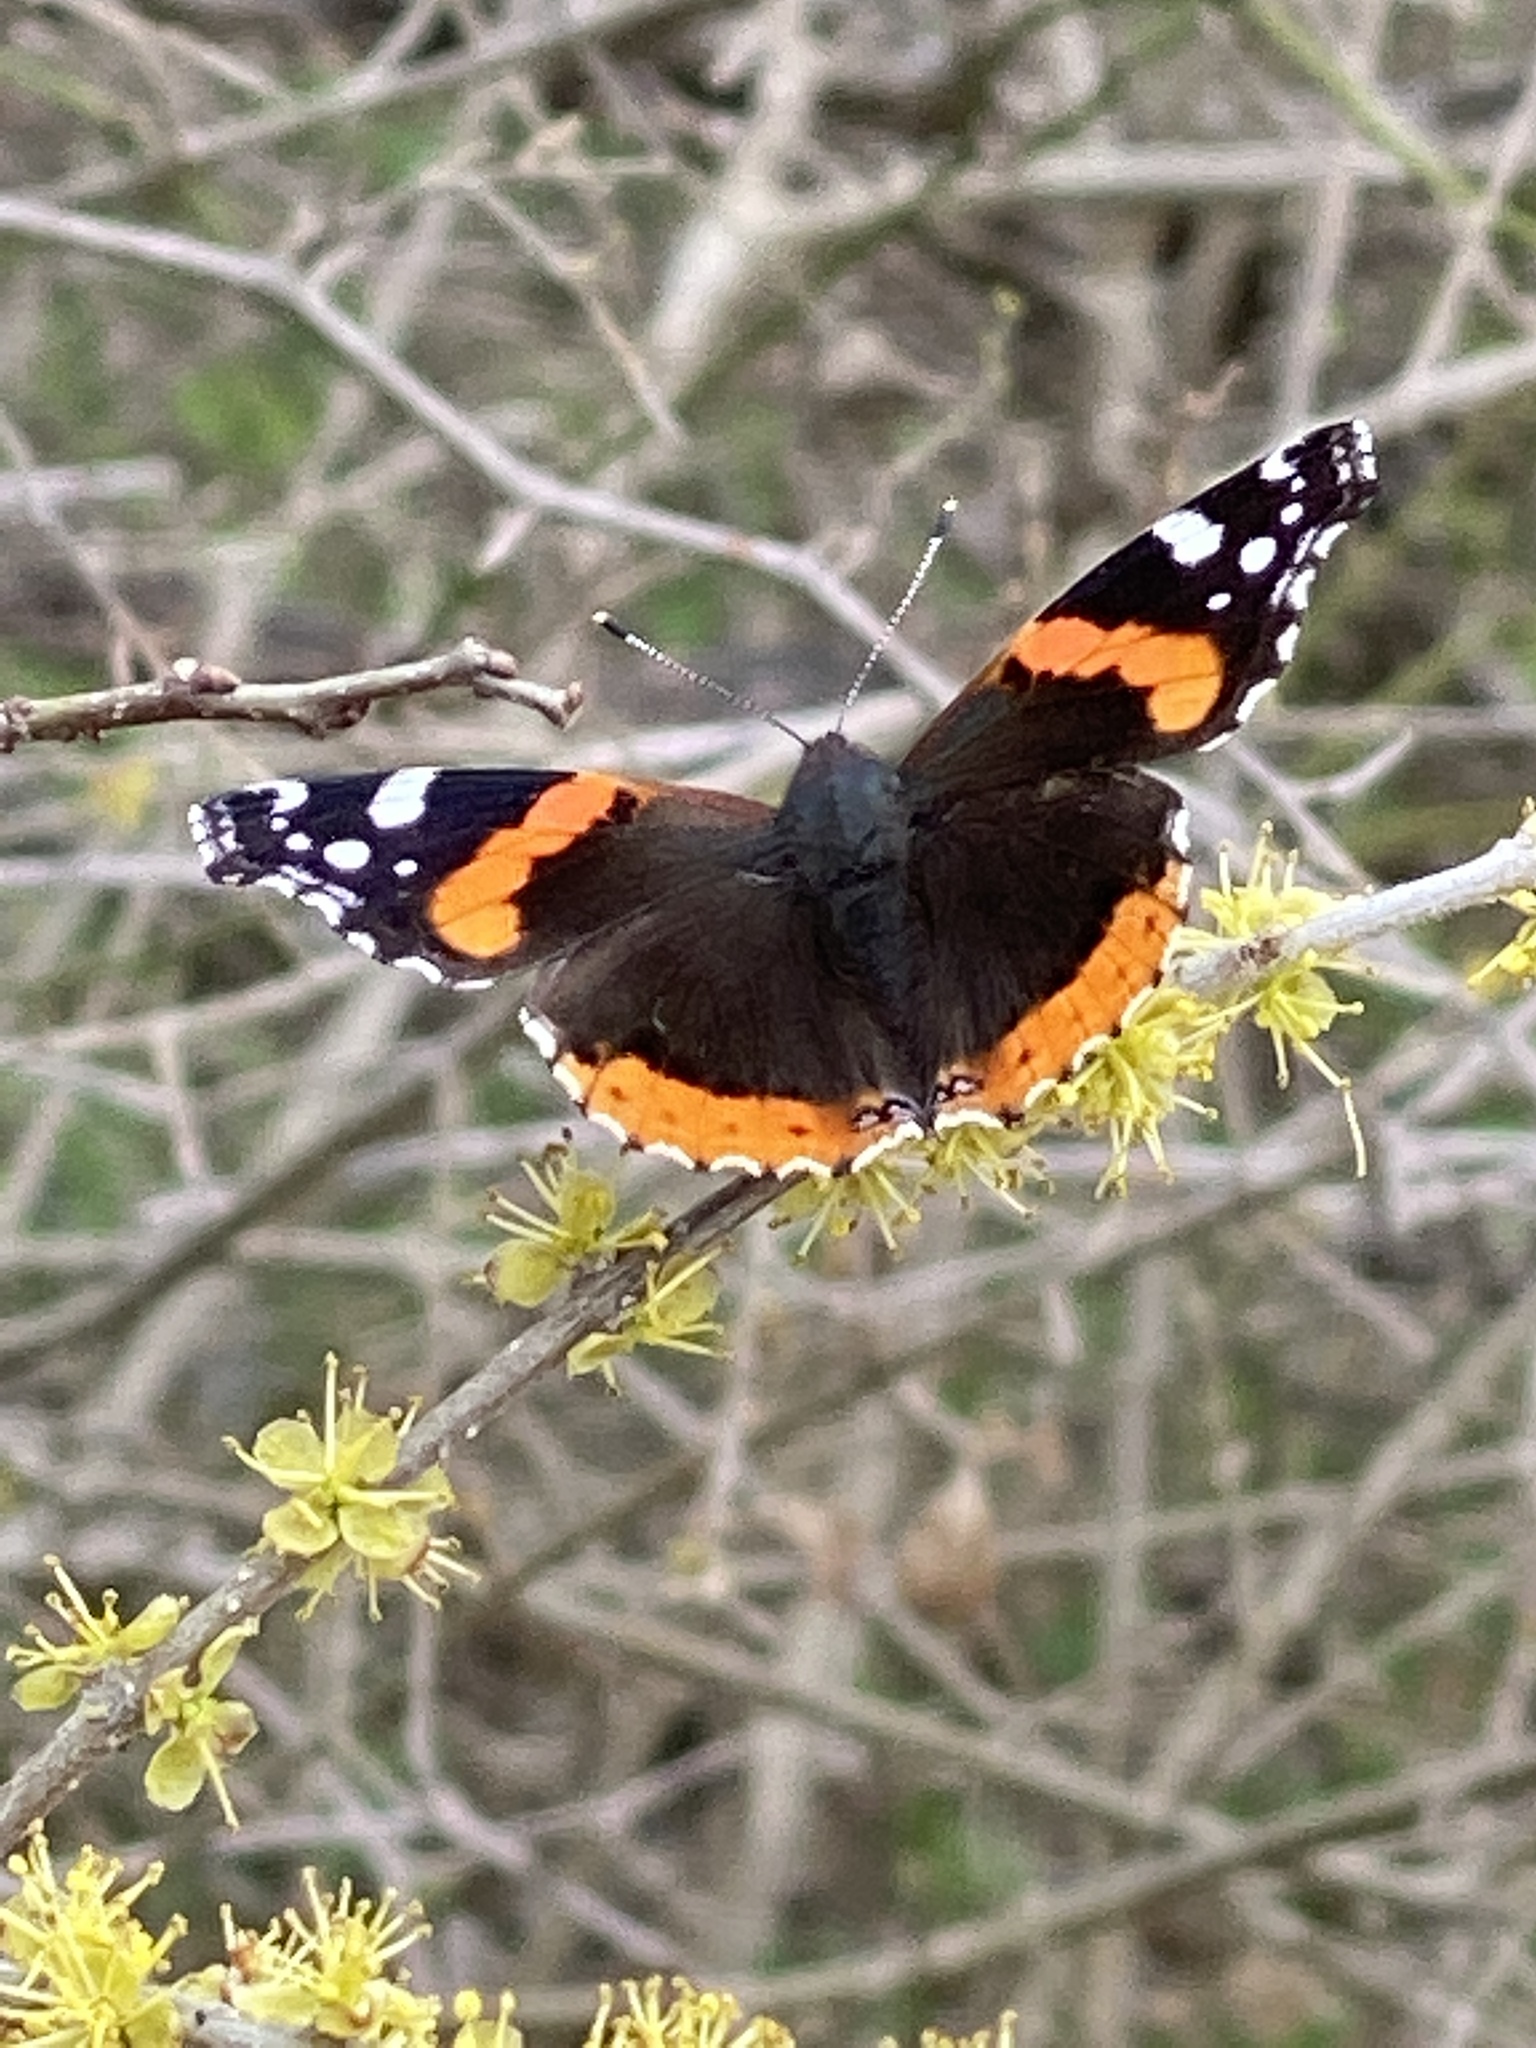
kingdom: Animalia
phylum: Arthropoda
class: Insecta
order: Lepidoptera
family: Nymphalidae
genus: Vanessa
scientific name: Vanessa atalanta
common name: Red admiral
